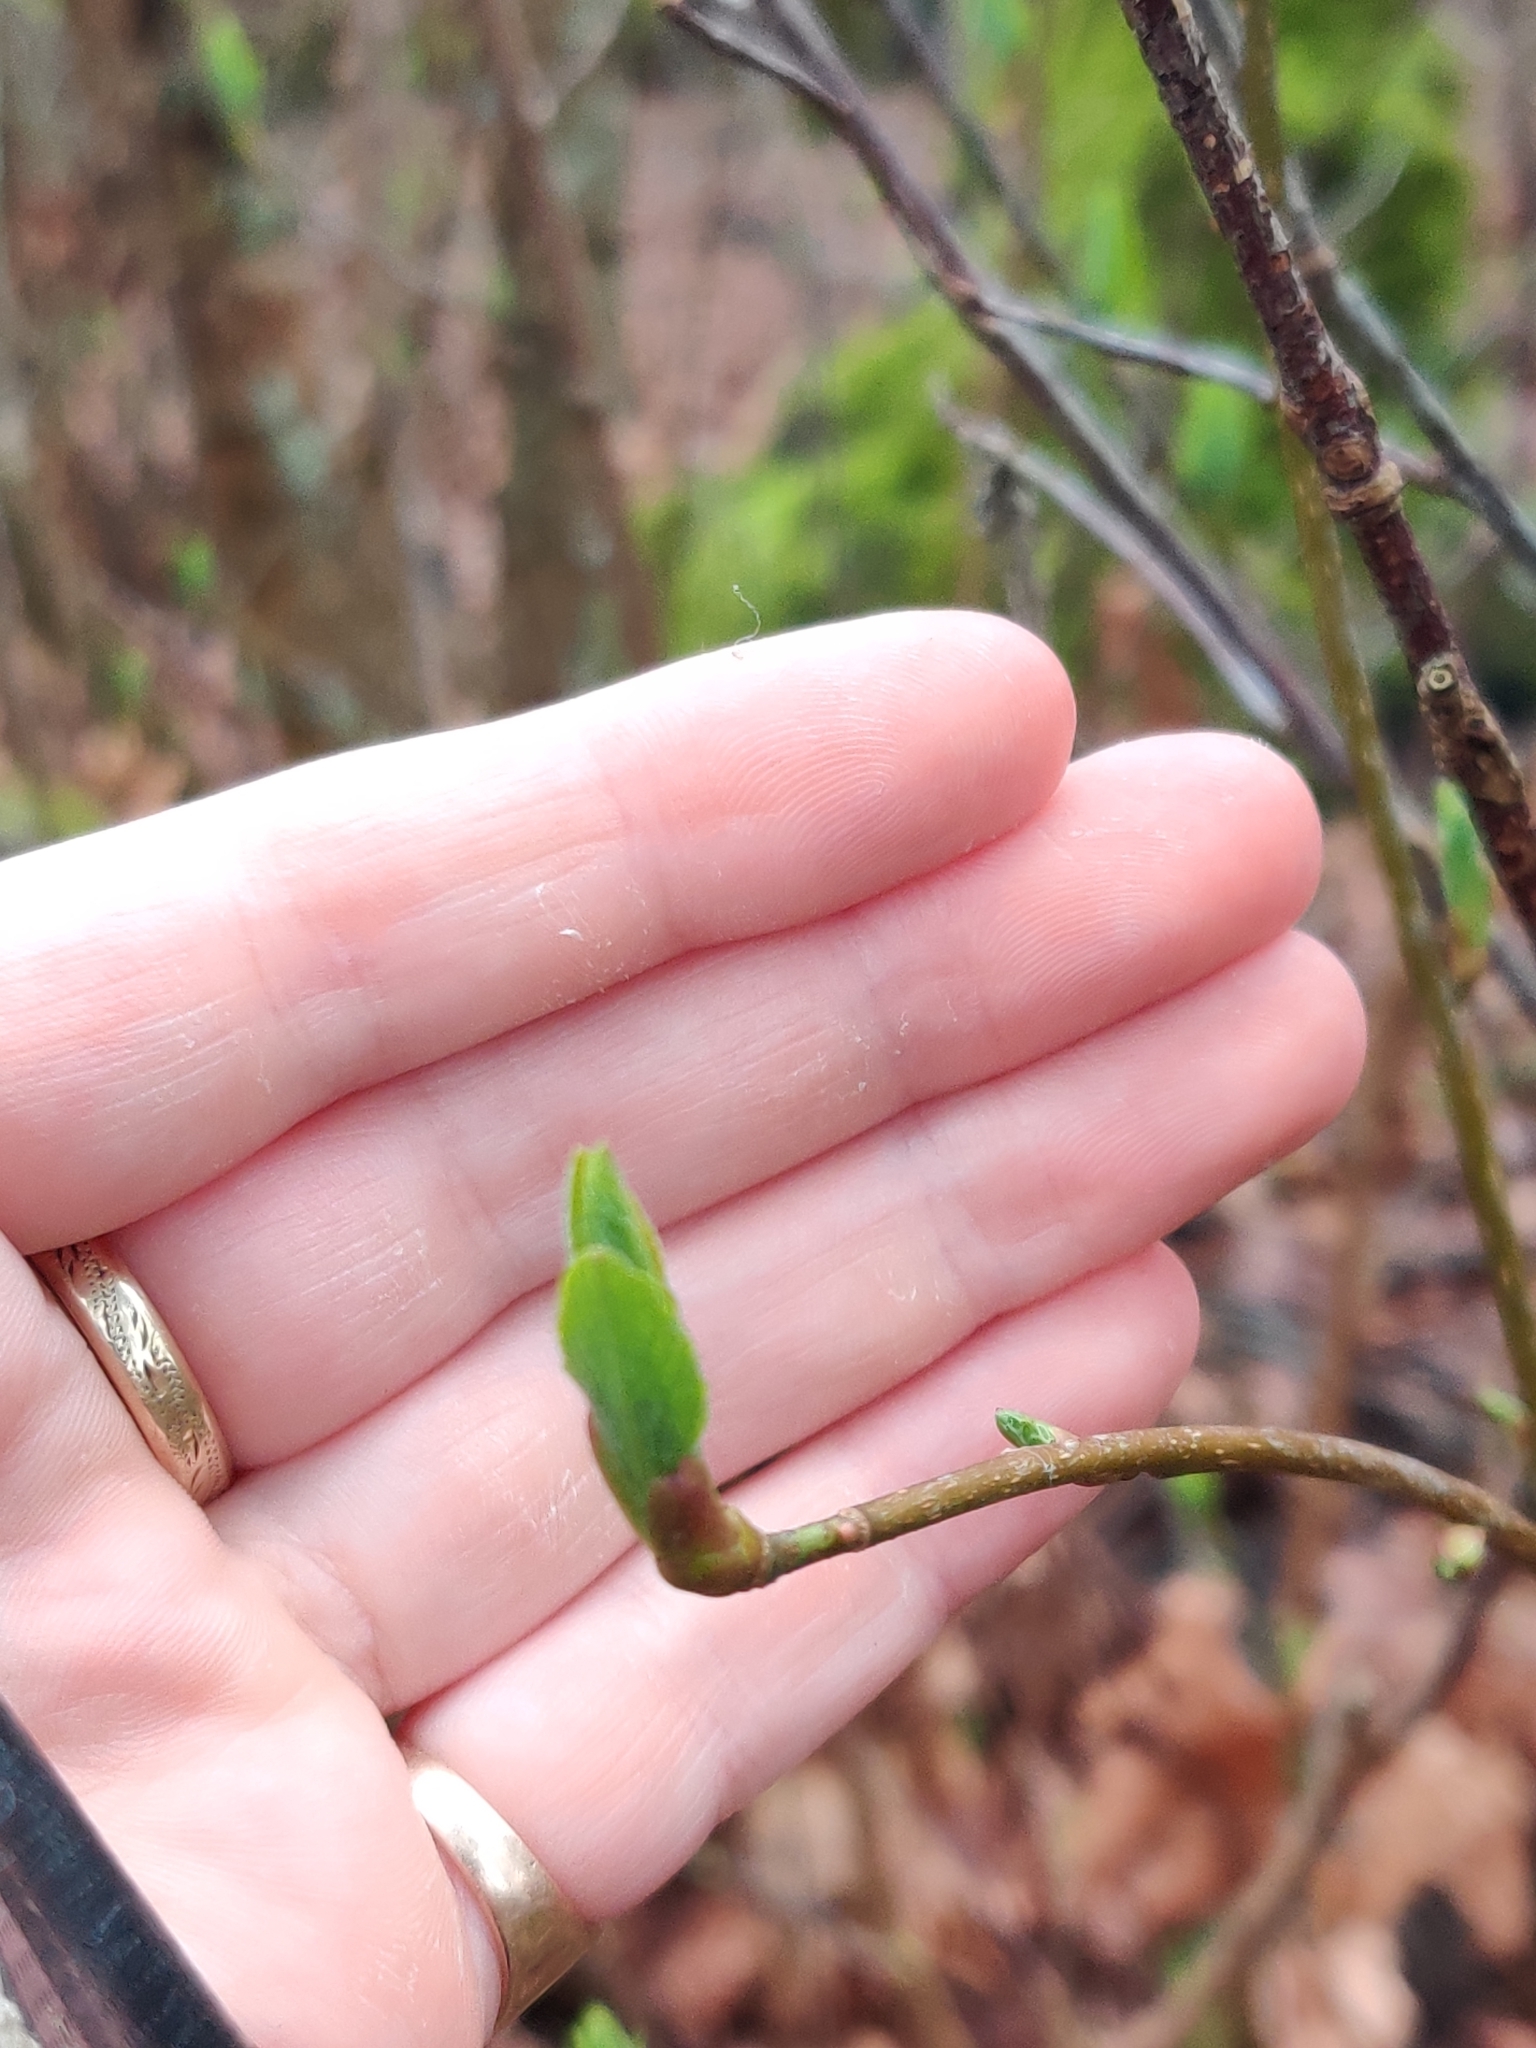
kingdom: Plantae
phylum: Tracheophyta
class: Magnoliopsida
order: Rosales
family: Rosaceae
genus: Oemleria
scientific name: Oemleria cerasiformis
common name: Osoberry
